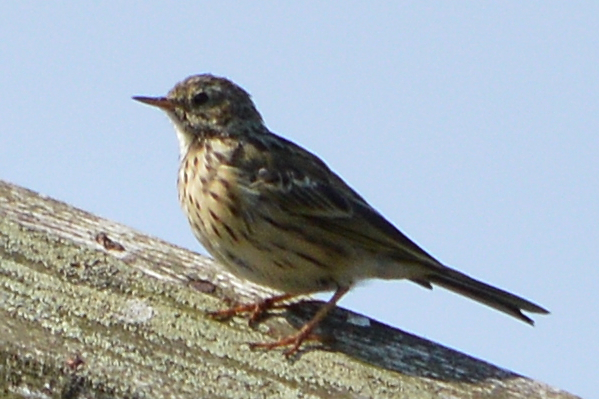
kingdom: Animalia
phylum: Chordata
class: Aves
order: Passeriformes
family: Motacillidae
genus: Anthus
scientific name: Anthus pratensis
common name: Meadow pipit
